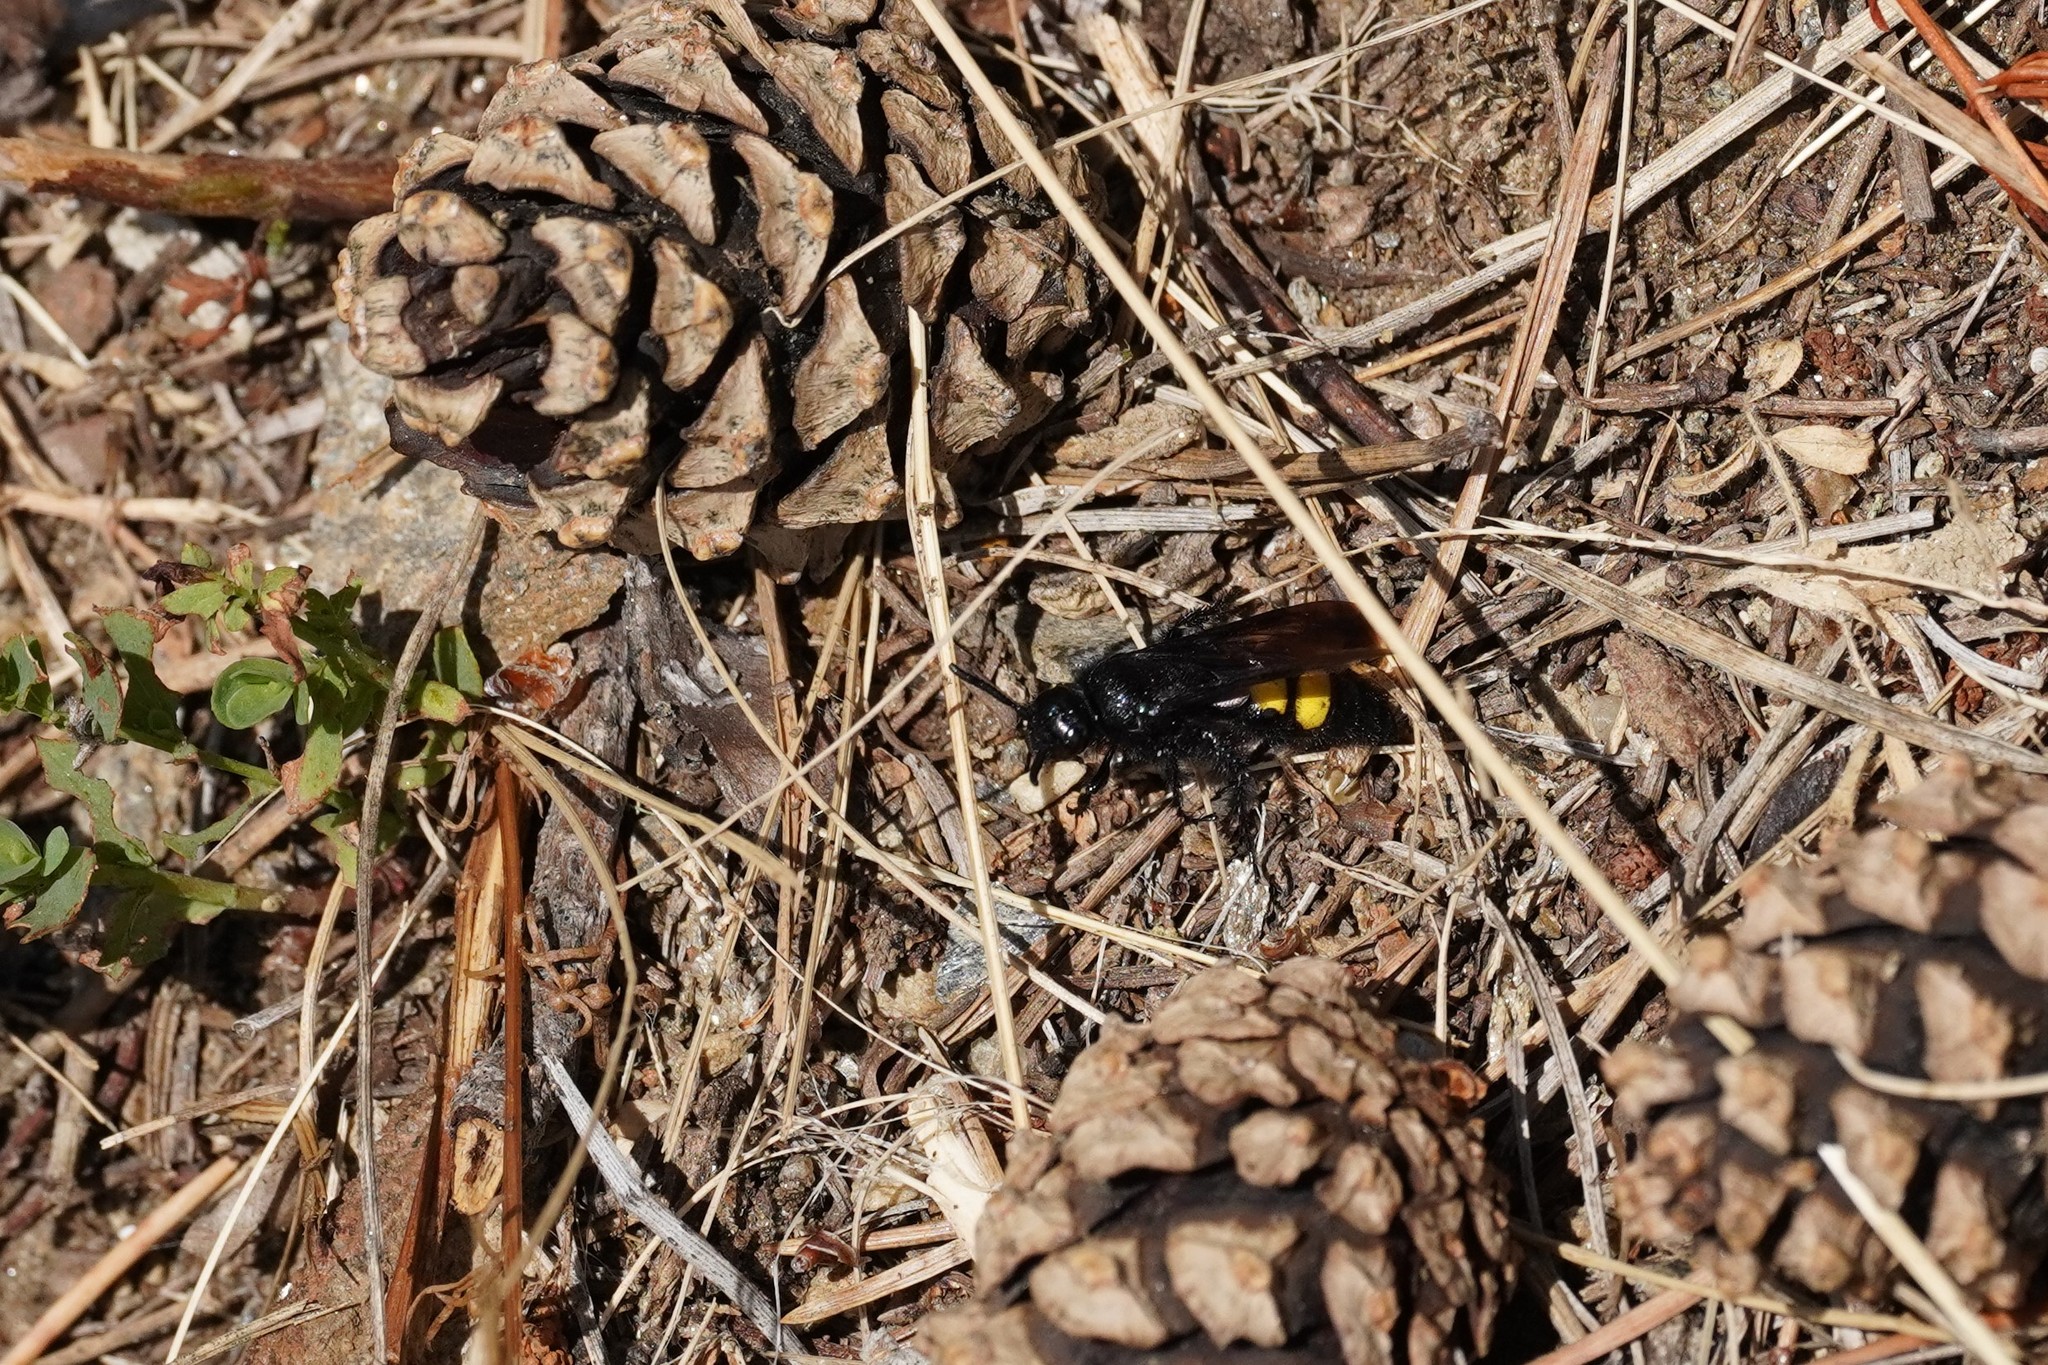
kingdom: Animalia
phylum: Arthropoda
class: Insecta
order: Hymenoptera
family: Scoliidae
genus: Scolia
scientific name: Scolia hirta
